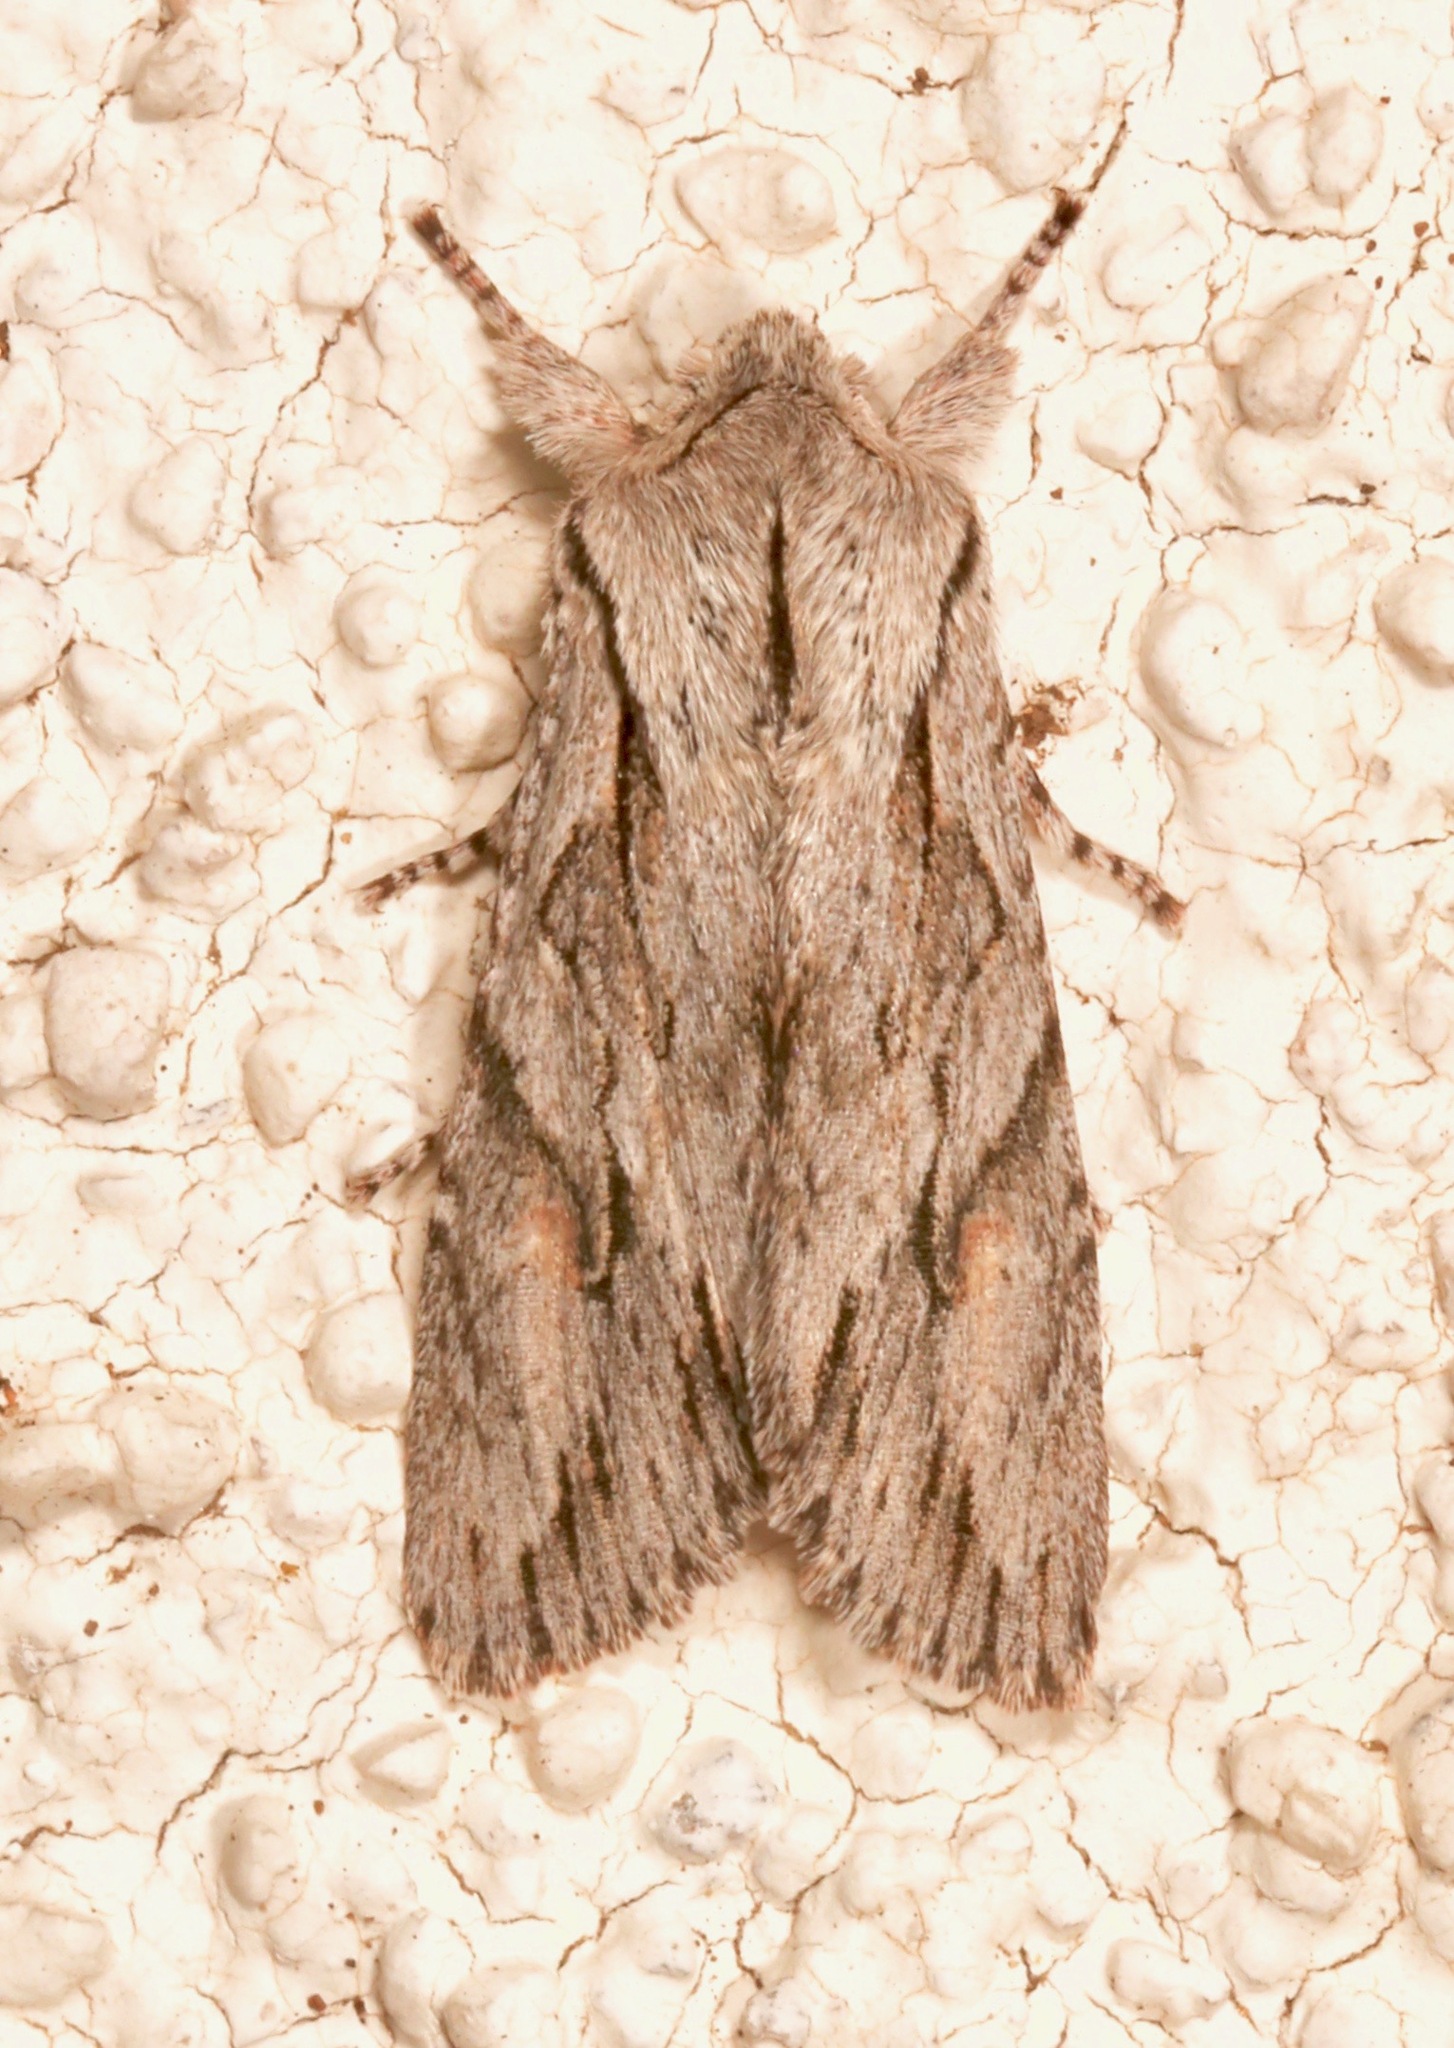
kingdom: Animalia
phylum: Arthropoda
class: Insecta
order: Lepidoptera
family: Noctuidae
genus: Egira
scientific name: Egira crucialis
